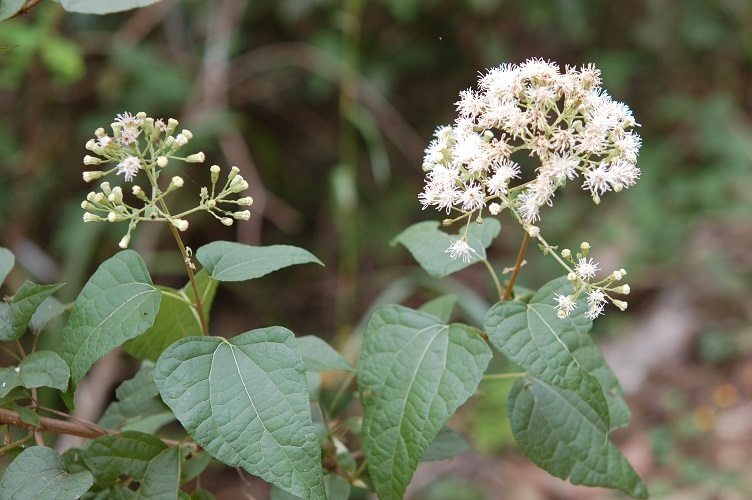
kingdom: Plantae
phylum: Tracheophyta
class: Magnoliopsida
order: Asterales
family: Asteraceae
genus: Chromolaena
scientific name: Chromolaena collina
